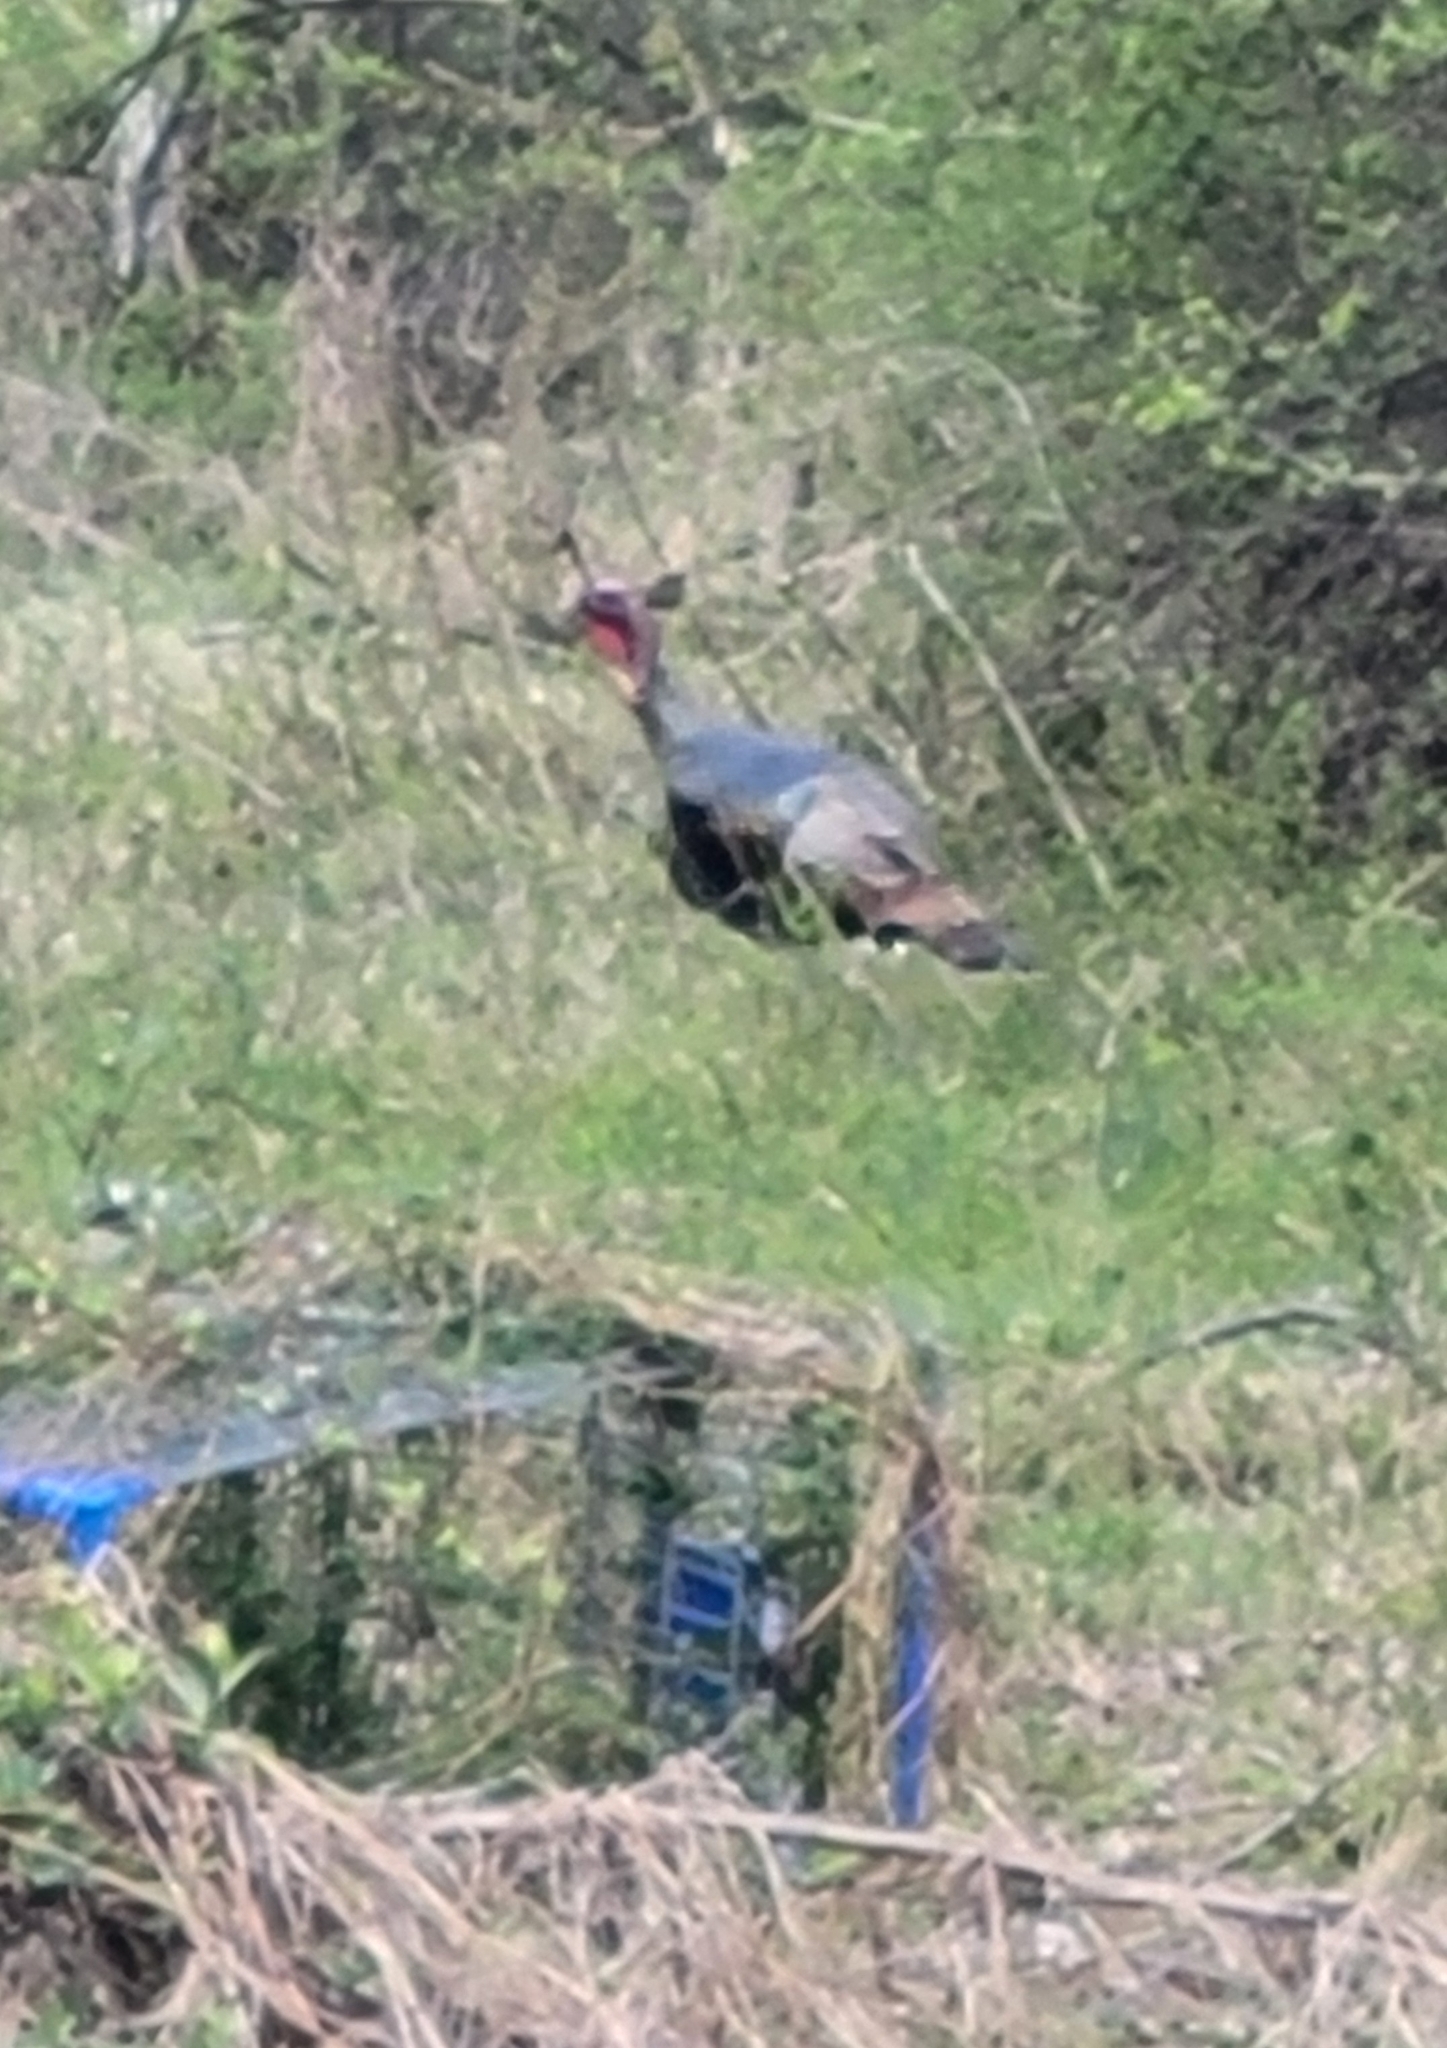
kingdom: Animalia
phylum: Chordata
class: Aves
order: Galliformes
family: Phasianidae
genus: Meleagris
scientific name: Meleagris gallopavo
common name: Wild turkey
